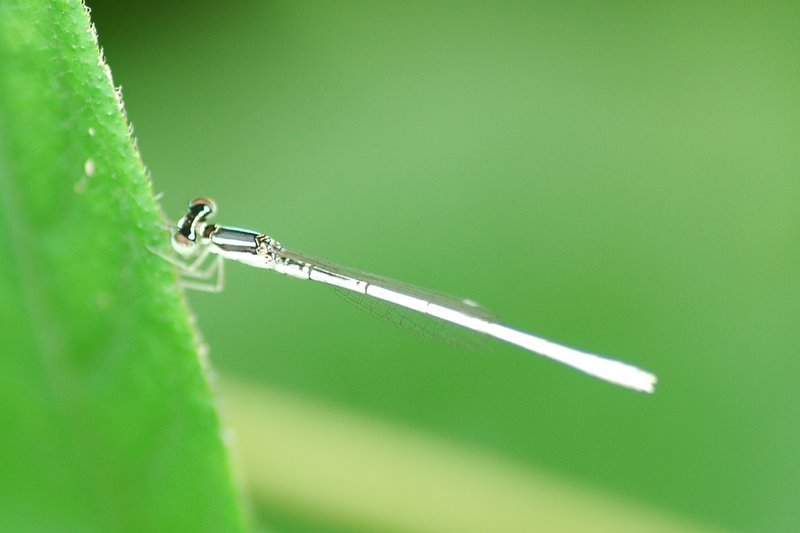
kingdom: Animalia
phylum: Arthropoda
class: Insecta
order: Odonata
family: Coenagrionidae
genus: Agriocnemis
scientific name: Agriocnemis lacteola
